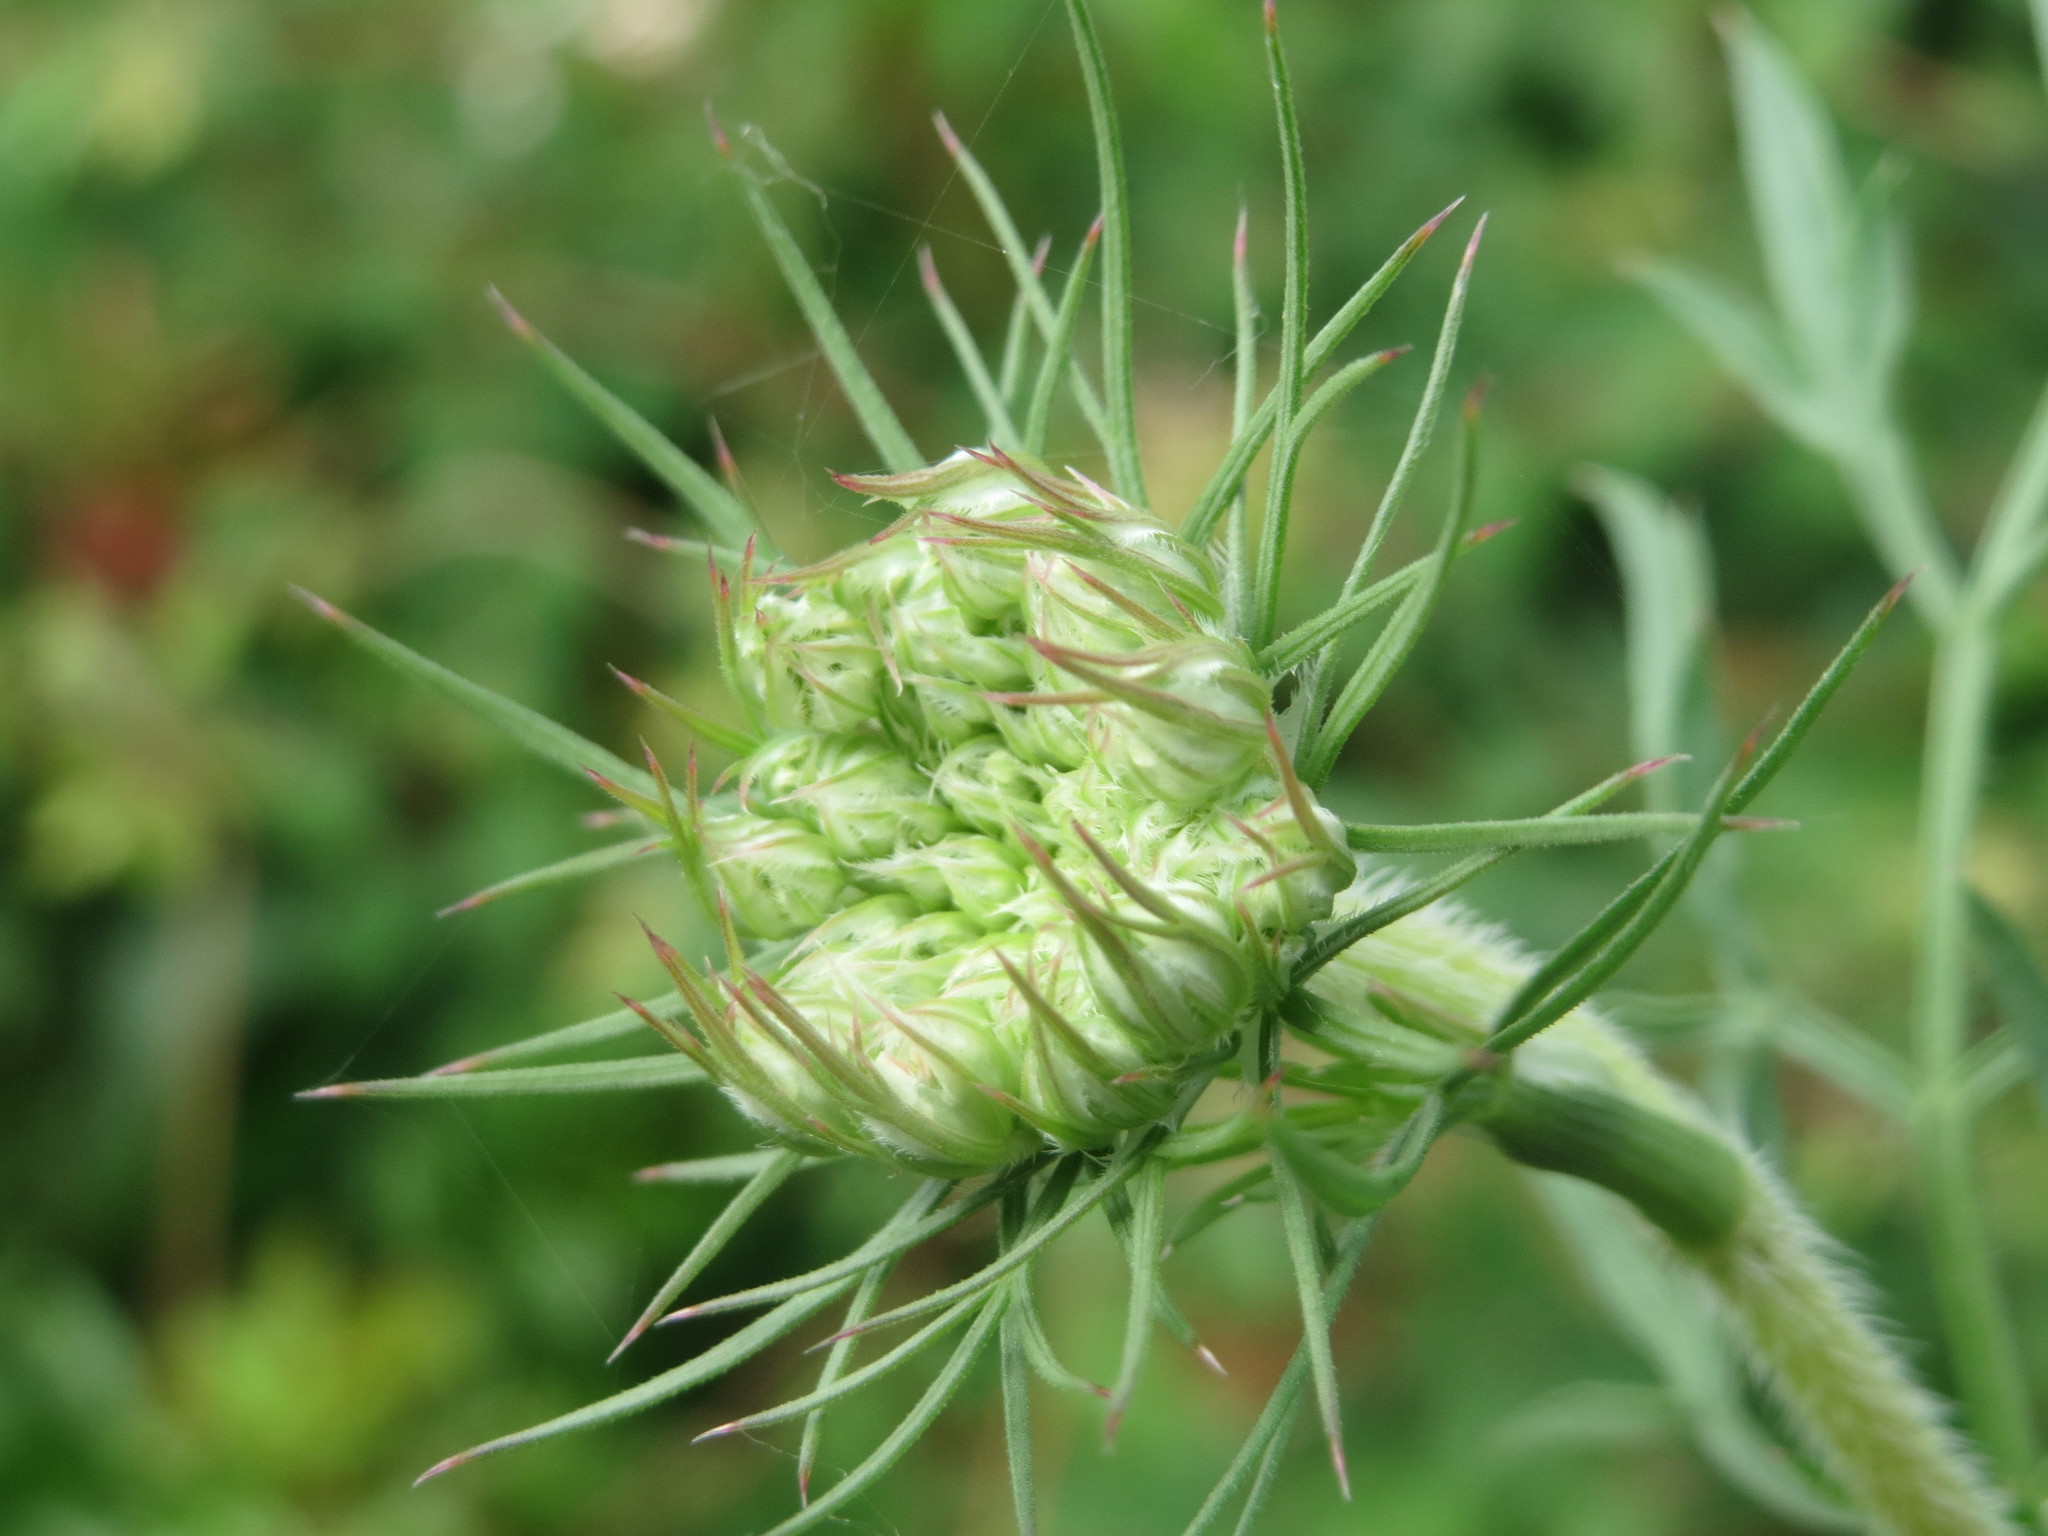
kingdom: Plantae
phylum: Tracheophyta
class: Magnoliopsida
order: Apiales
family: Apiaceae
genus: Daucus
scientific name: Daucus carota
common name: Wild carrot
